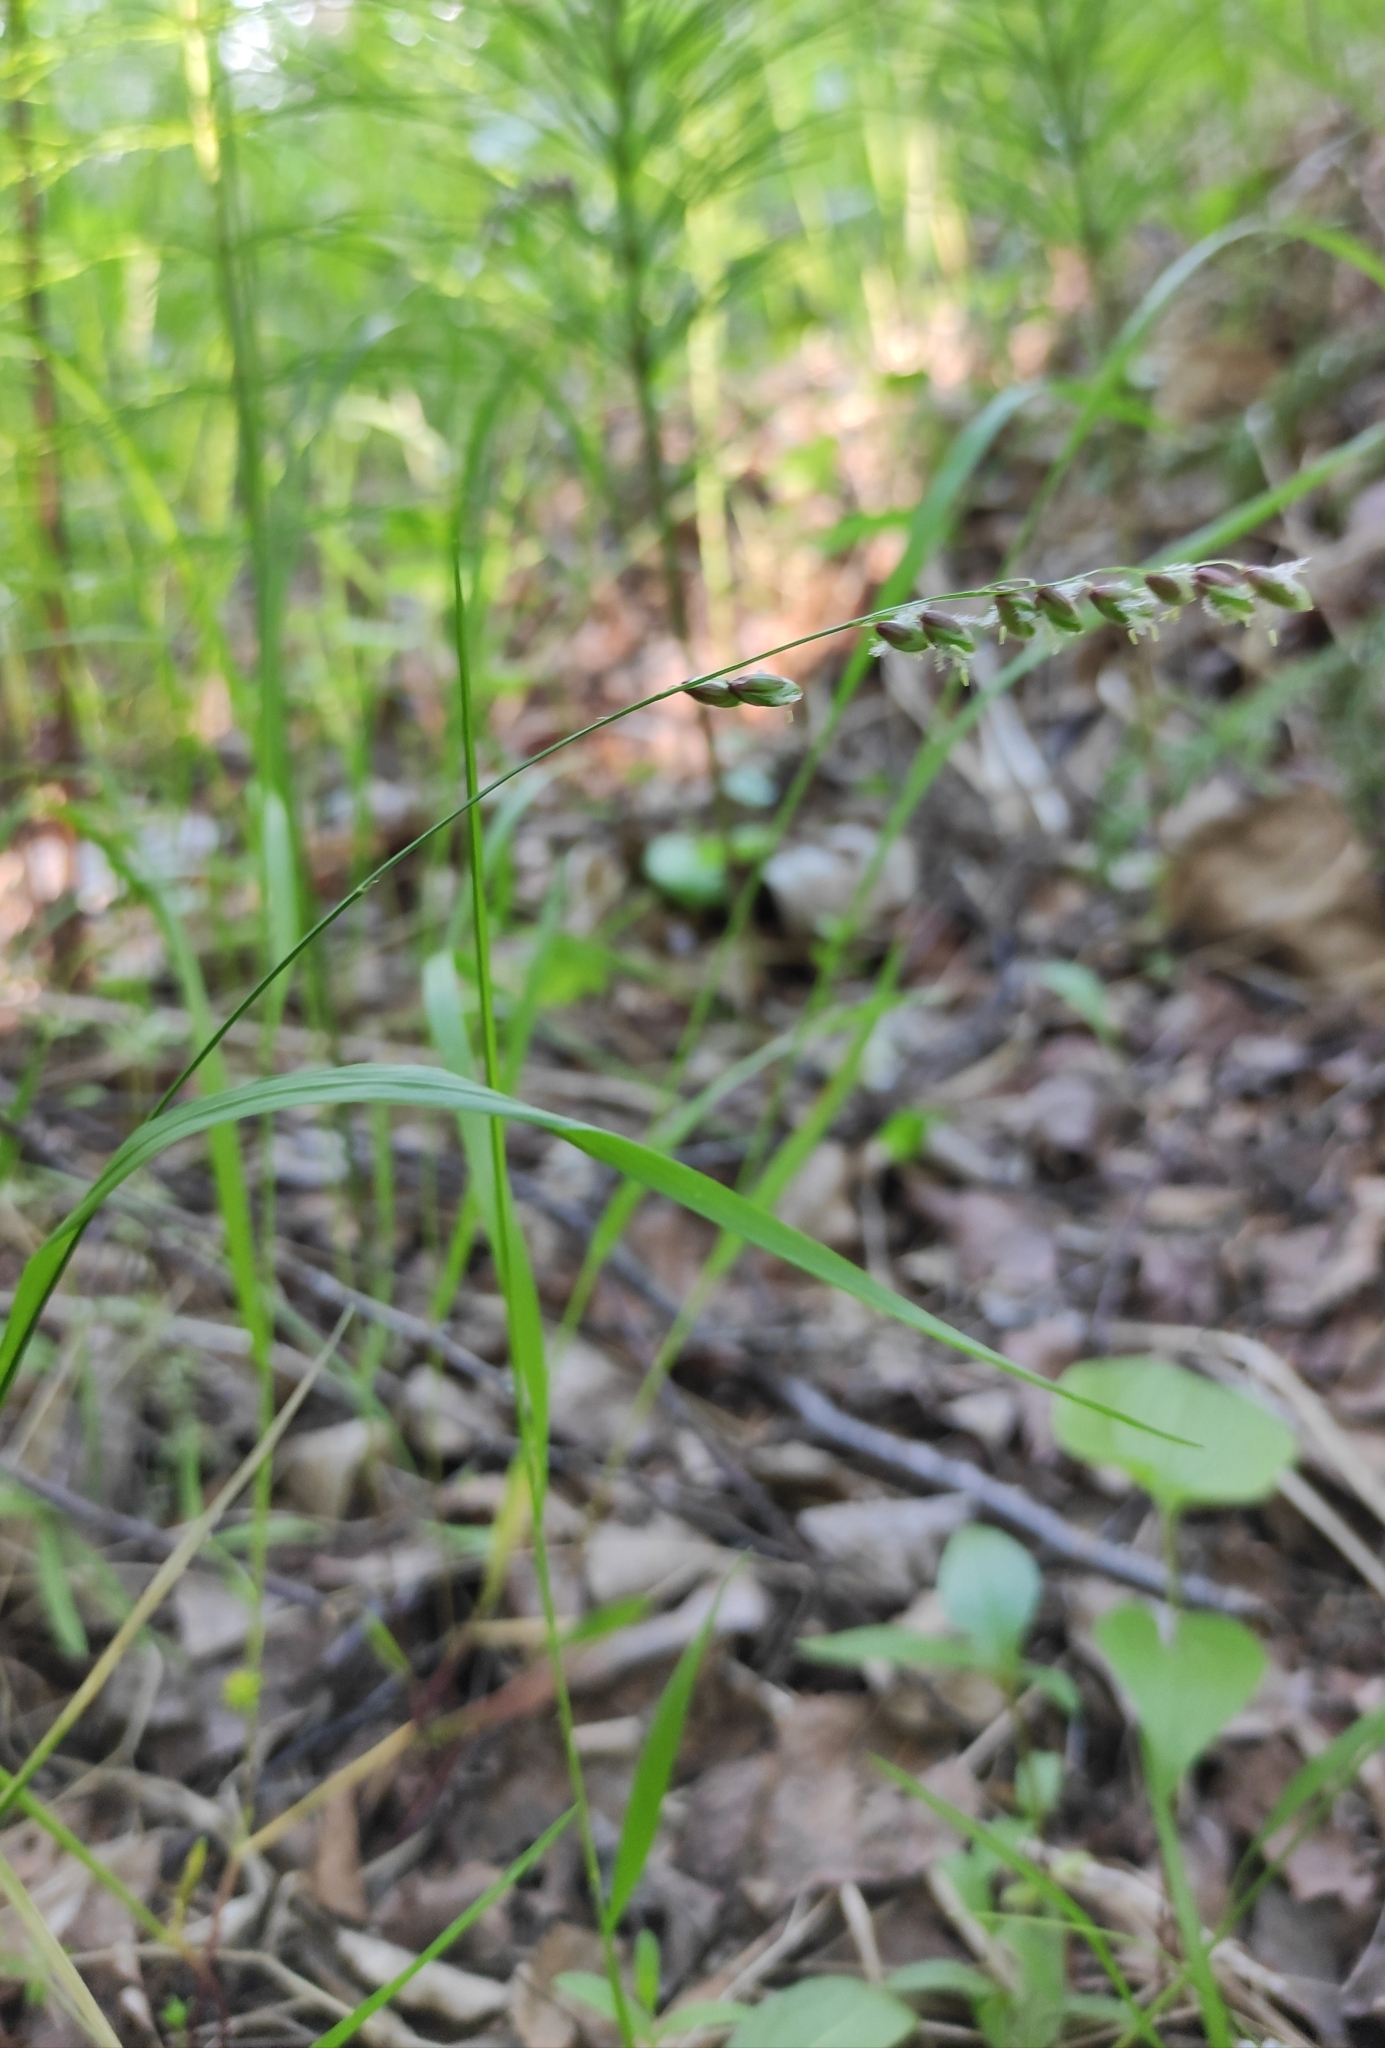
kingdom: Plantae
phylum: Tracheophyta
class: Liliopsida
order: Poales
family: Poaceae
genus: Melica
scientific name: Melica nutans
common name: Mountain melick
